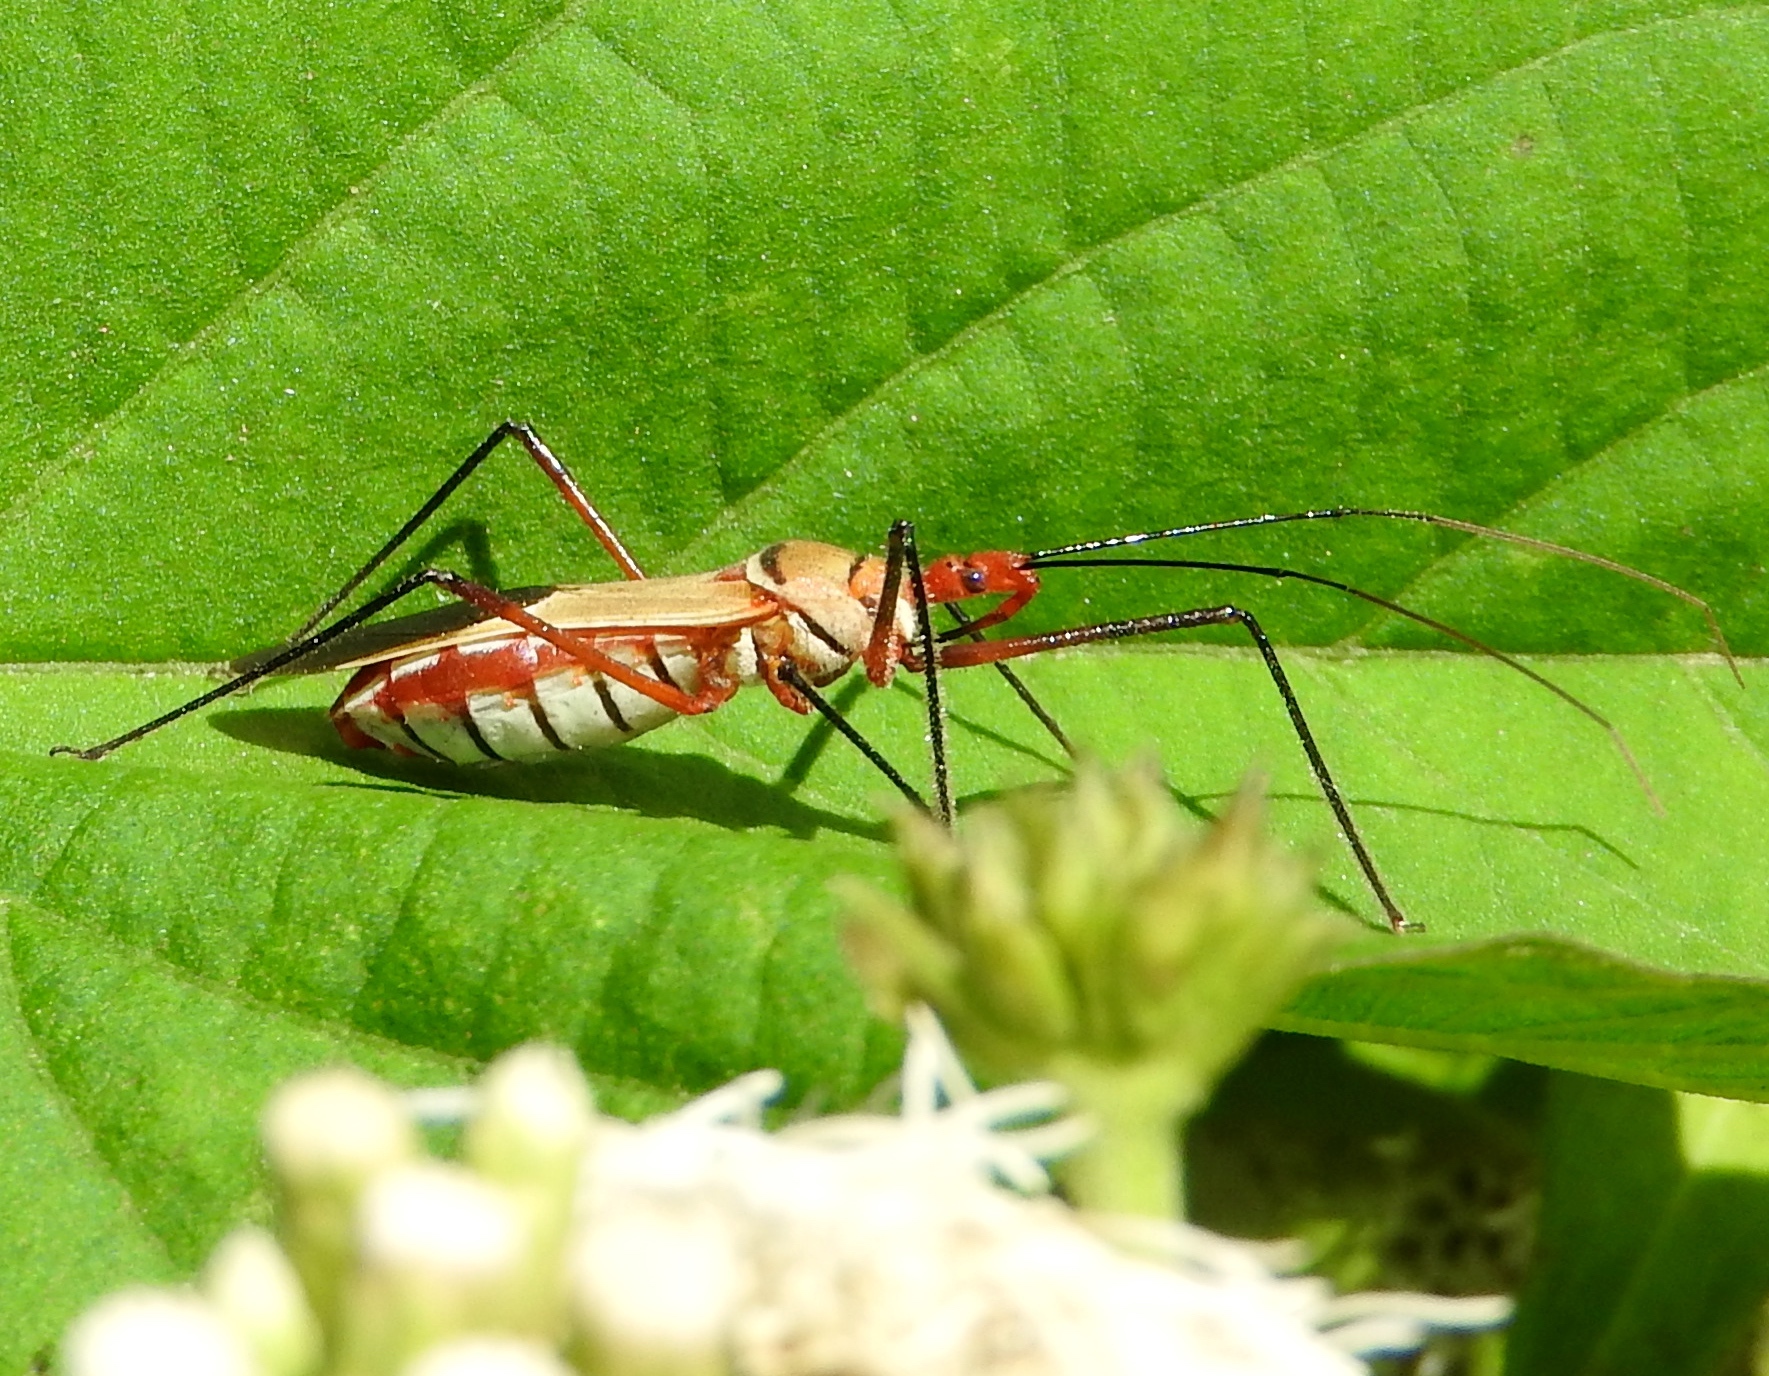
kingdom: Animalia
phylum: Arthropoda
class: Insecta
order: Hemiptera
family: Reduviidae
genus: Zelus
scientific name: Zelus grassans
